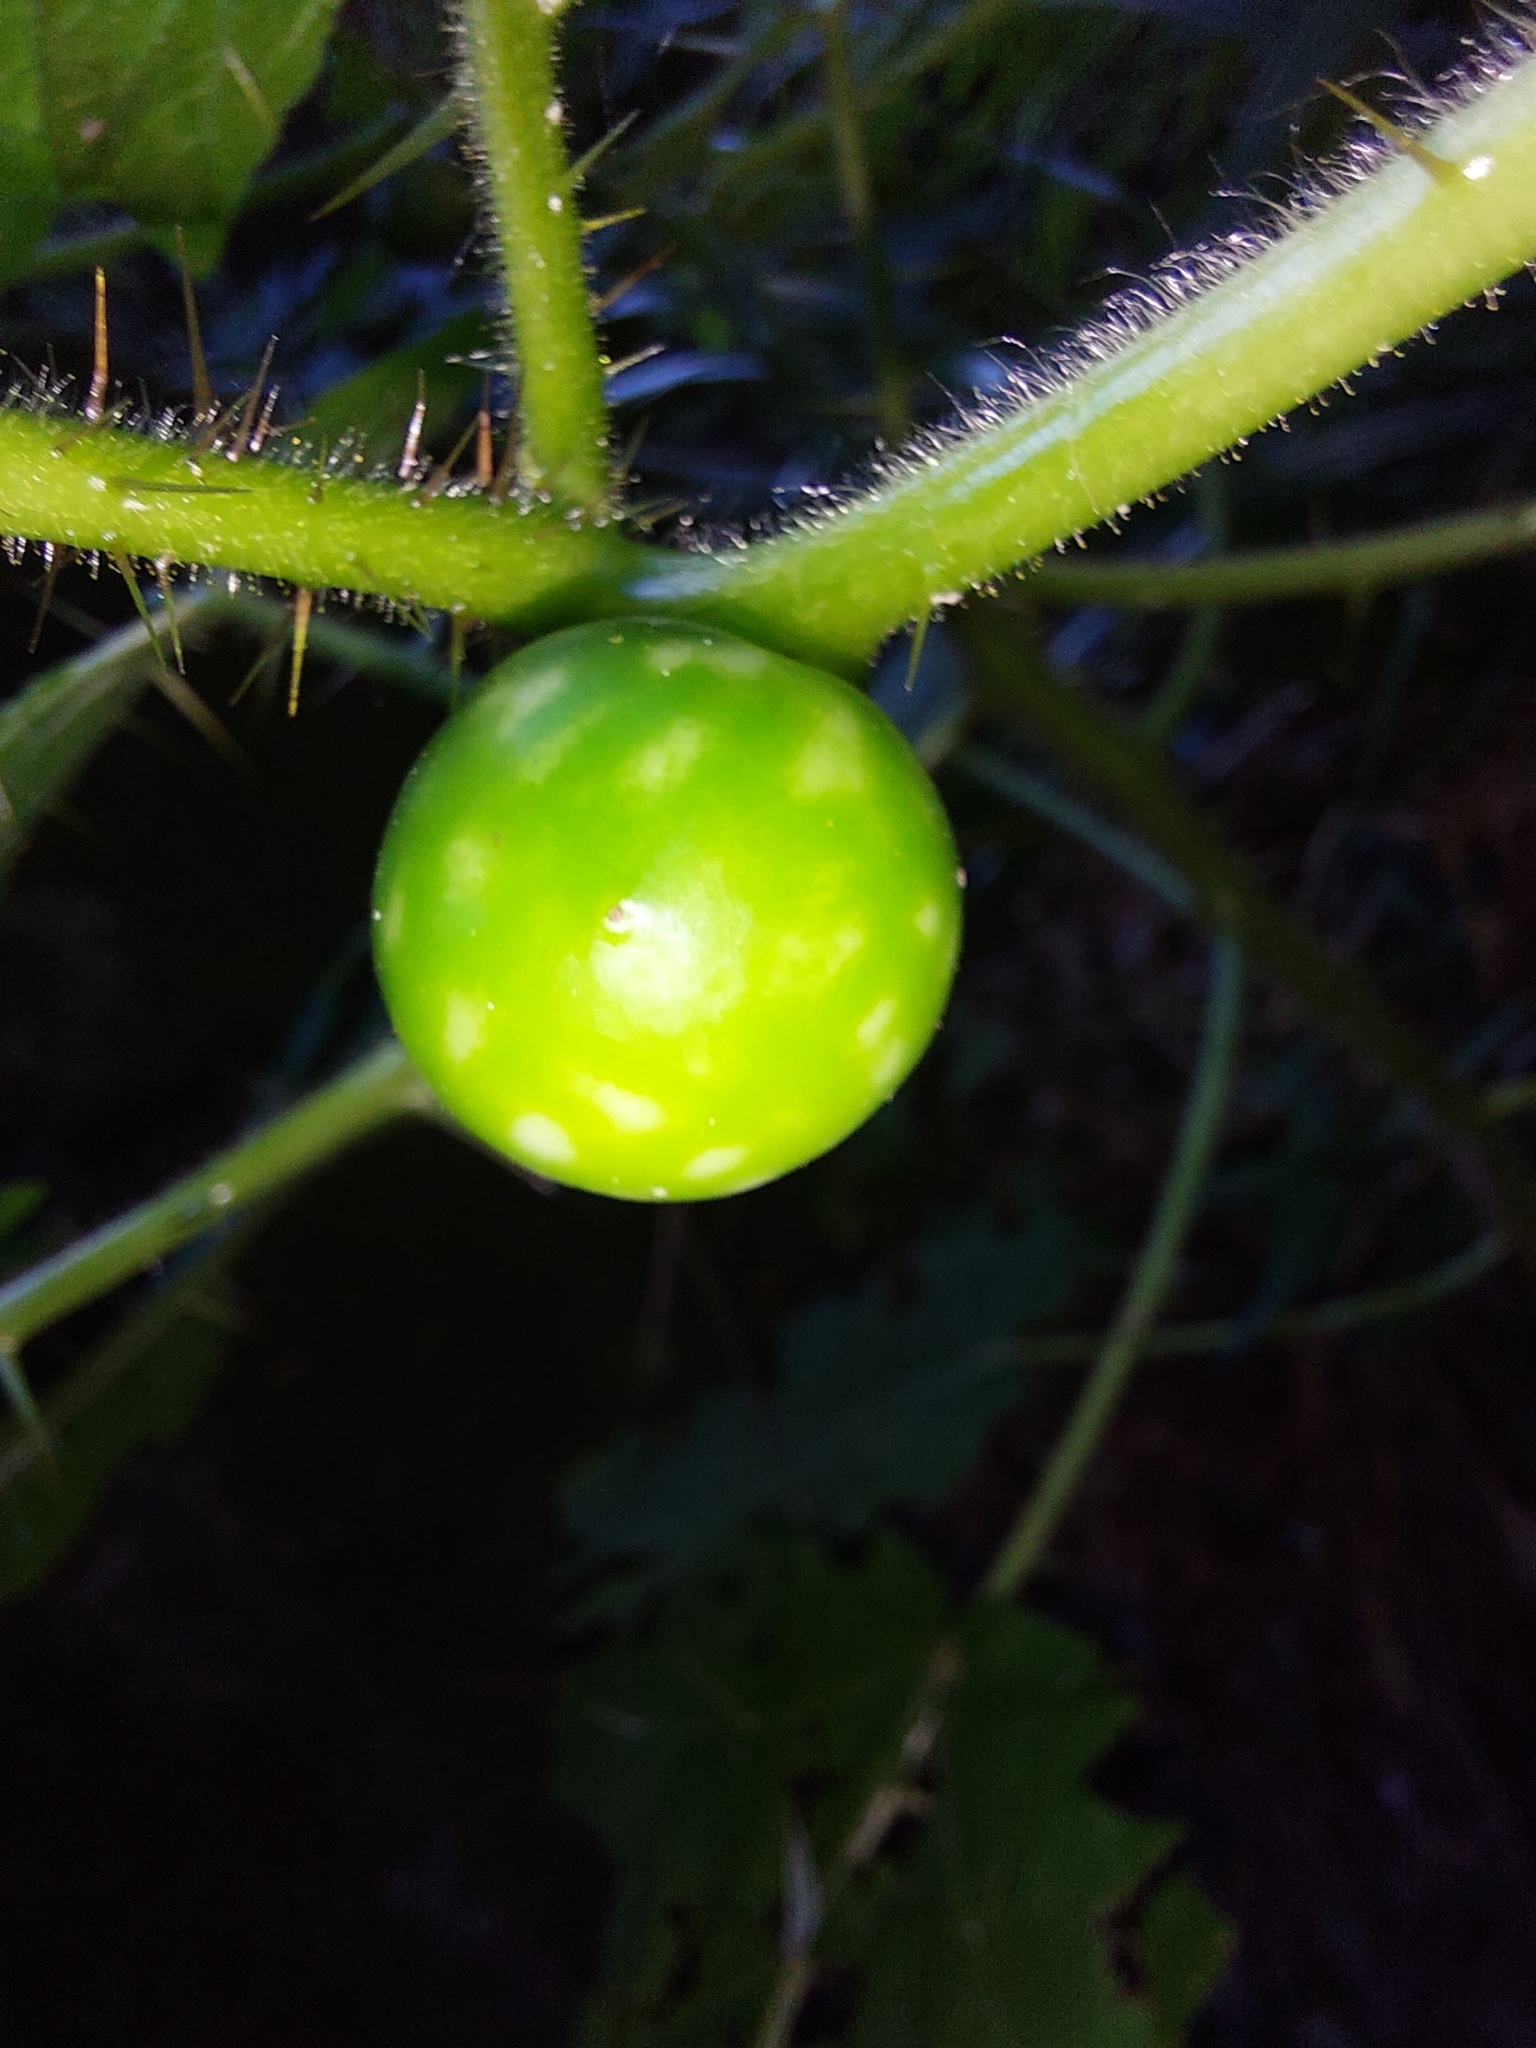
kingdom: Plantae
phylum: Tracheophyta
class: Magnoliopsida
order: Solanales
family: Solanaceae
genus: Solanum
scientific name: Solanum aculeatissimum
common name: Dutch eggplant
